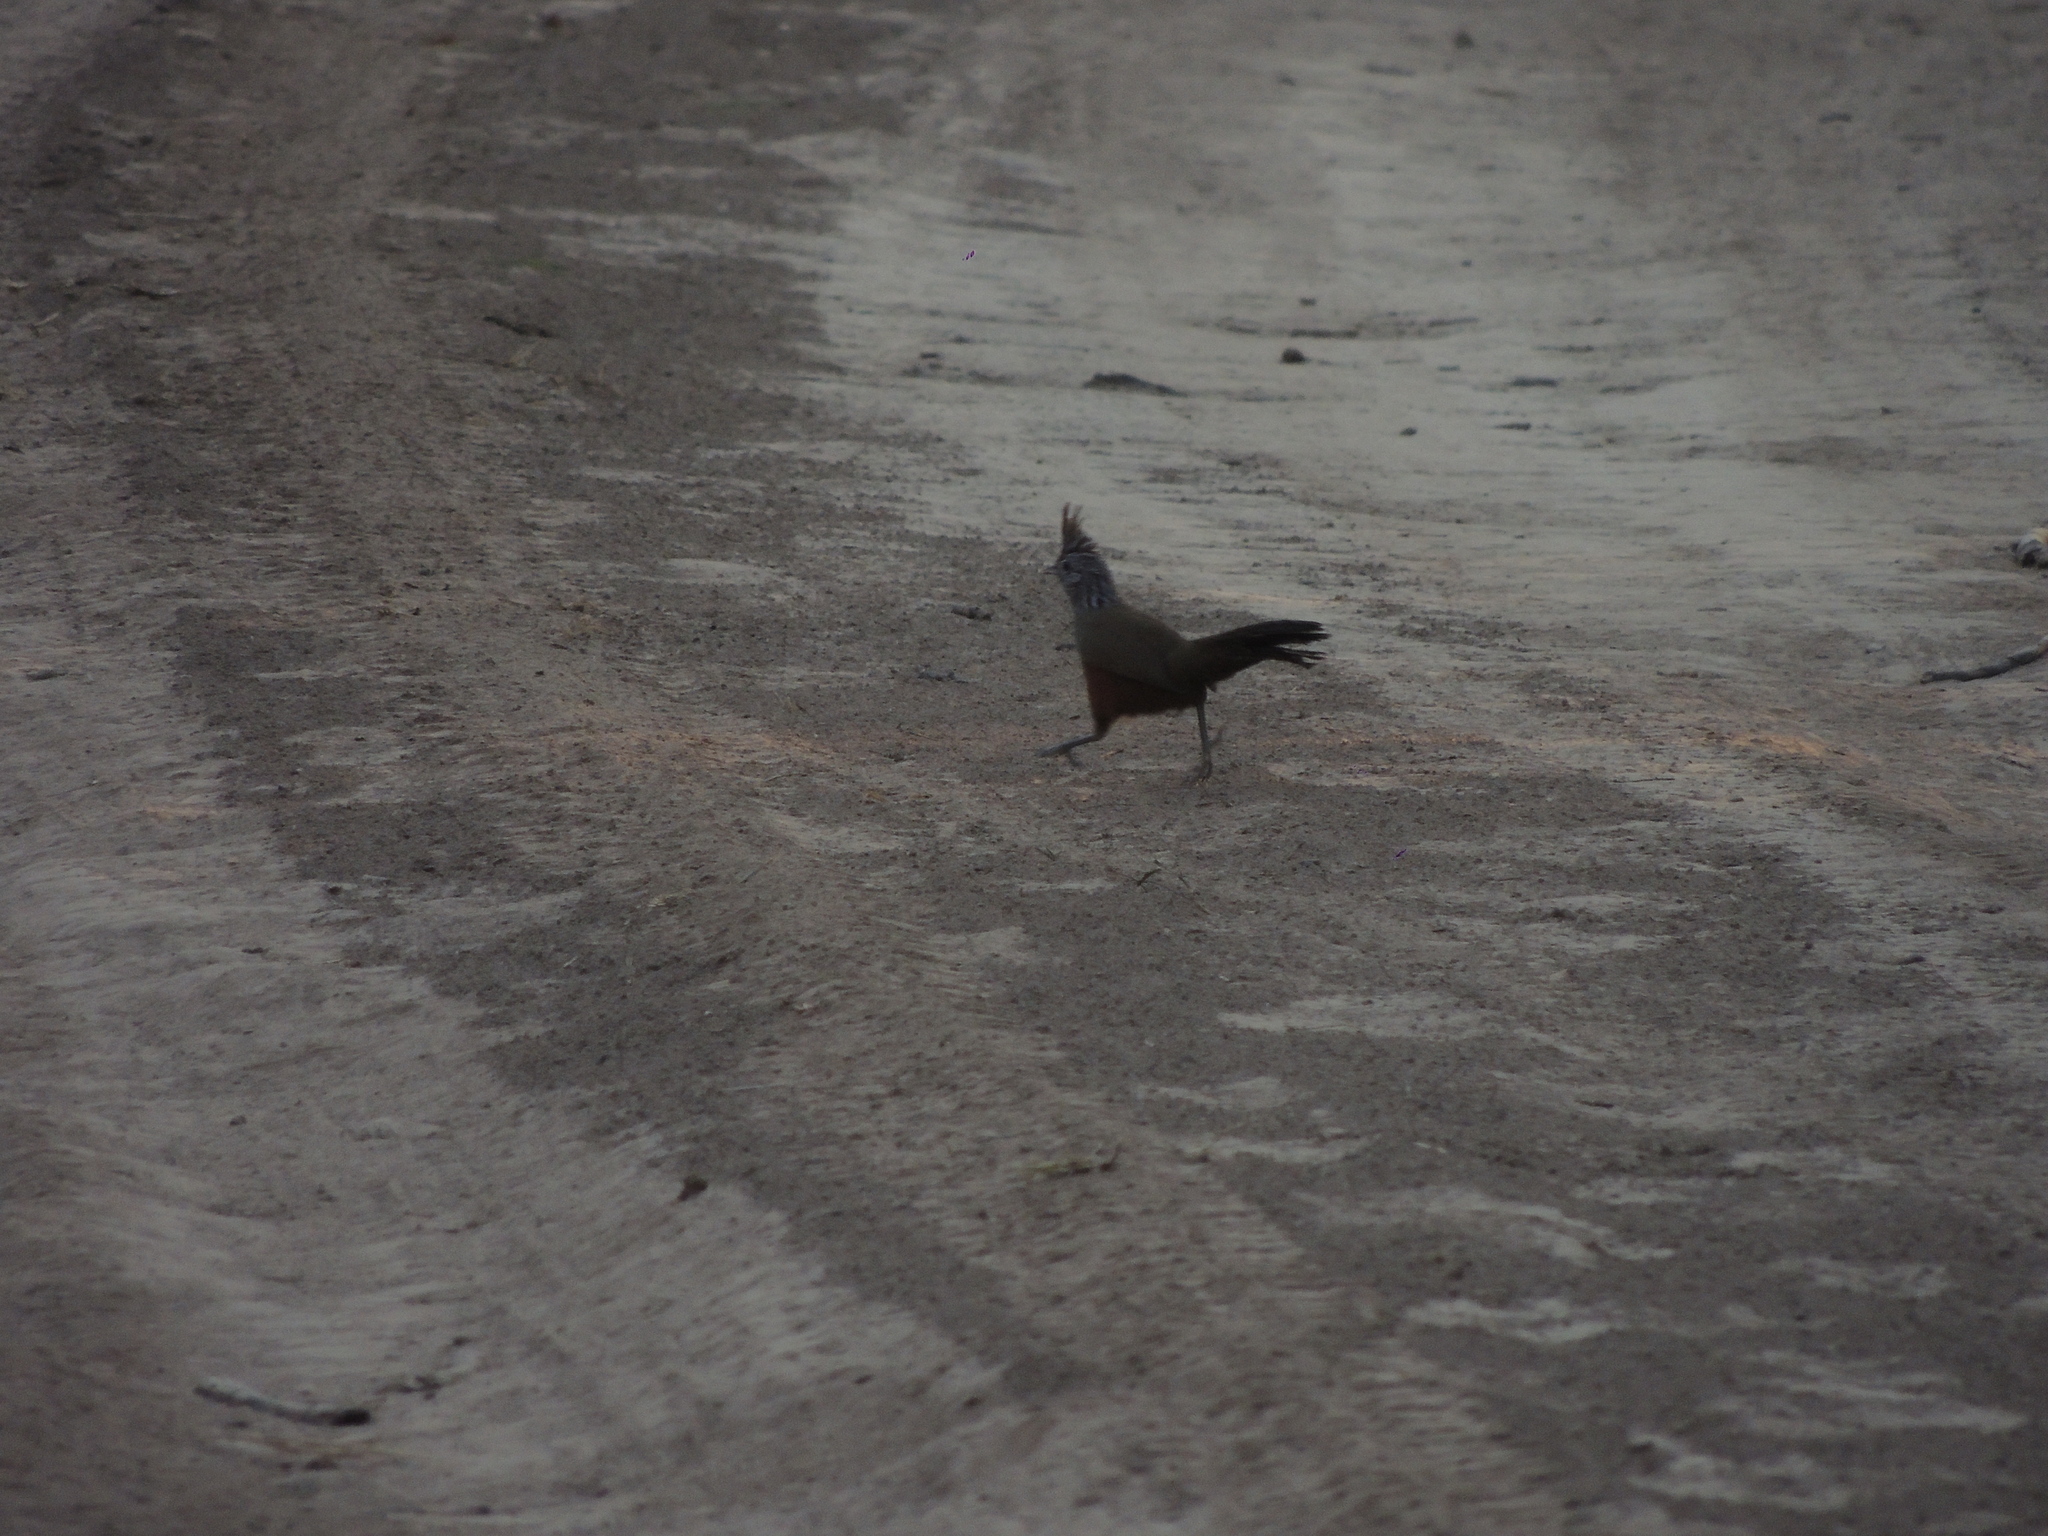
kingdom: Animalia
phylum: Chordata
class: Aves
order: Passeriformes
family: Rhinocryptidae
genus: Rhinocrypta
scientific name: Rhinocrypta lanceolata
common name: Crested gallito
